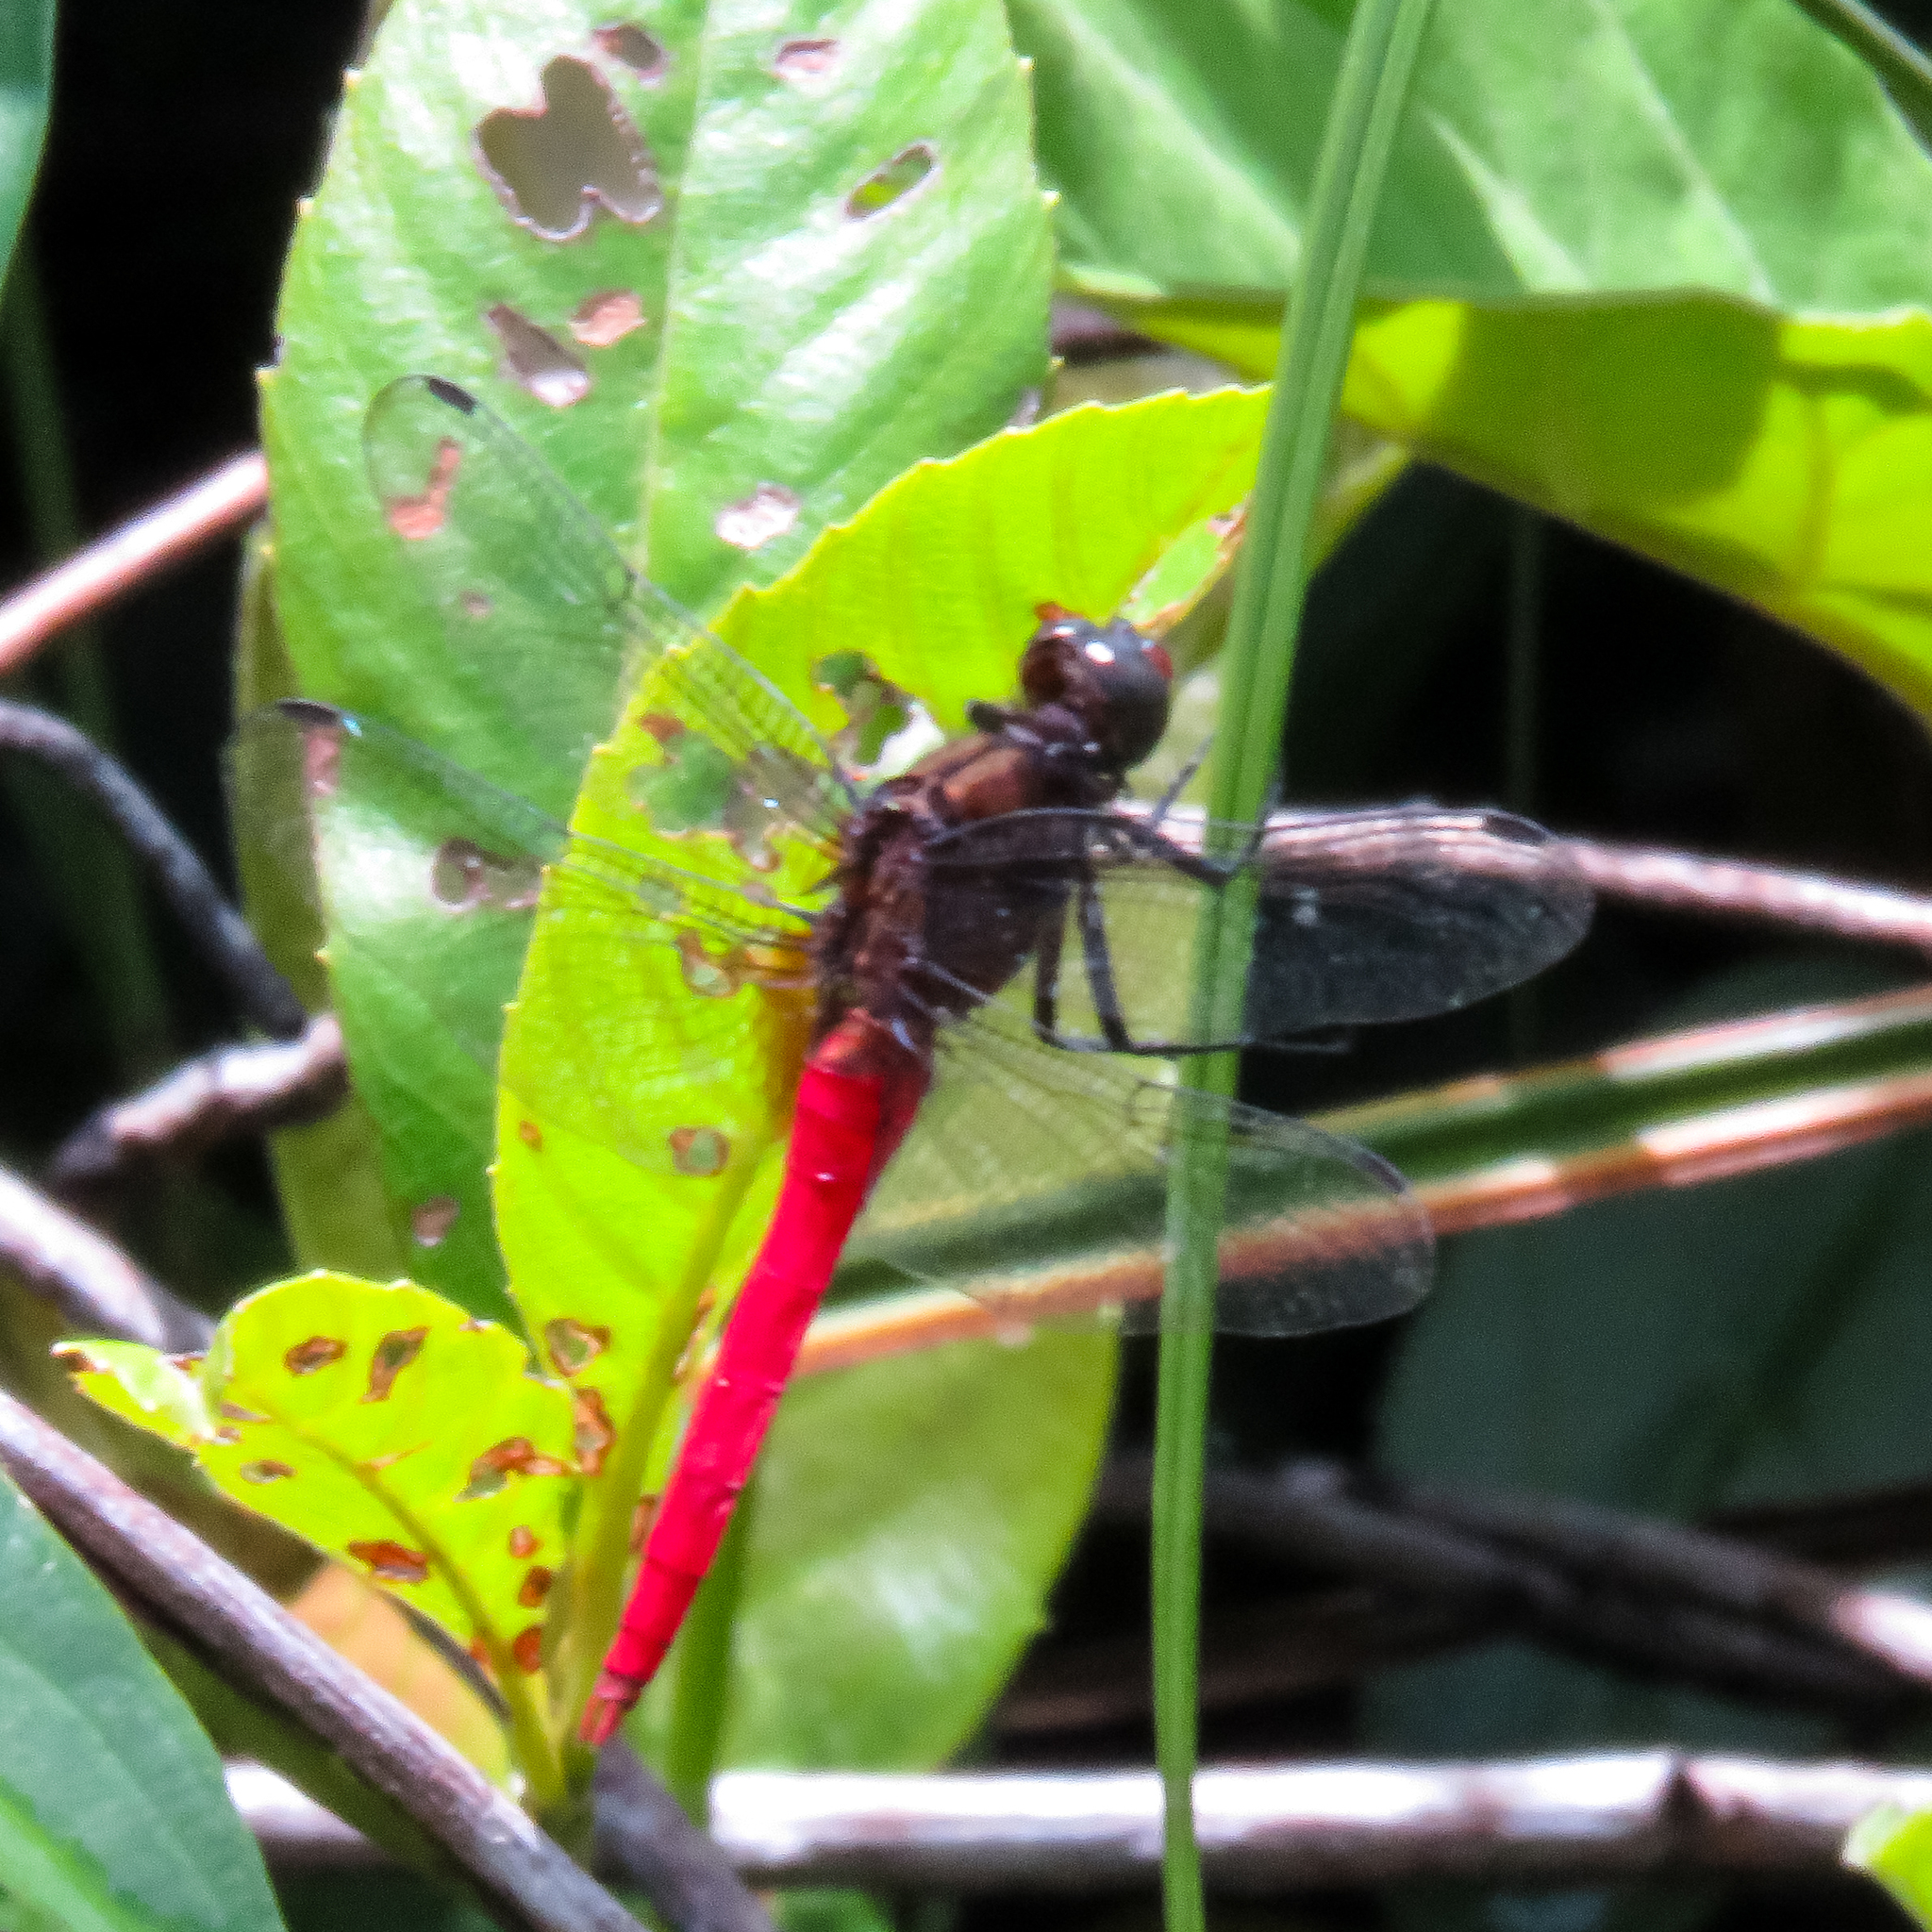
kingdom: Animalia
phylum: Arthropoda
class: Insecta
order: Odonata
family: Libellulidae
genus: Orthetrum
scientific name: Orthetrum chrysis
